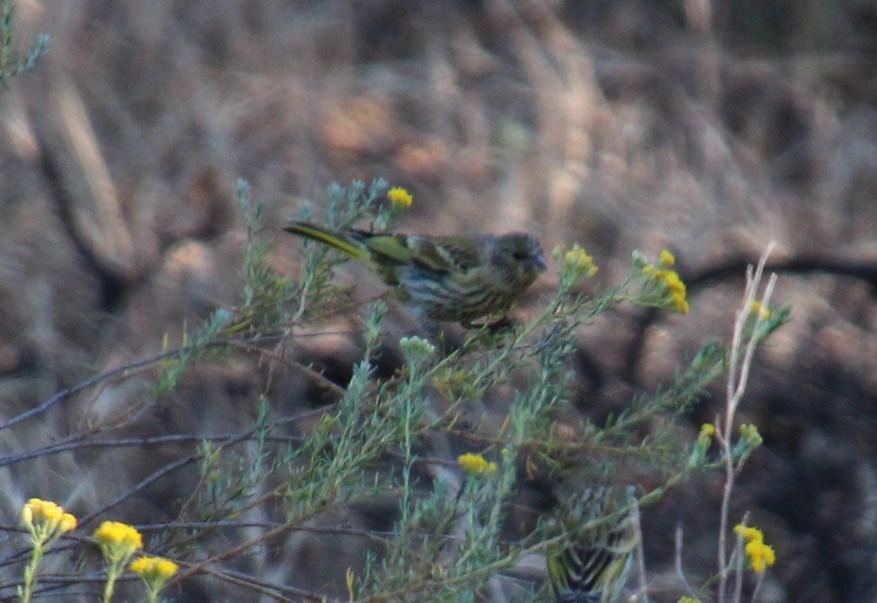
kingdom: Animalia
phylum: Chordata
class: Aves
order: Passeriformes
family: Fringillidae
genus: Serinus
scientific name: Serinus canicollis
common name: Cape canary
